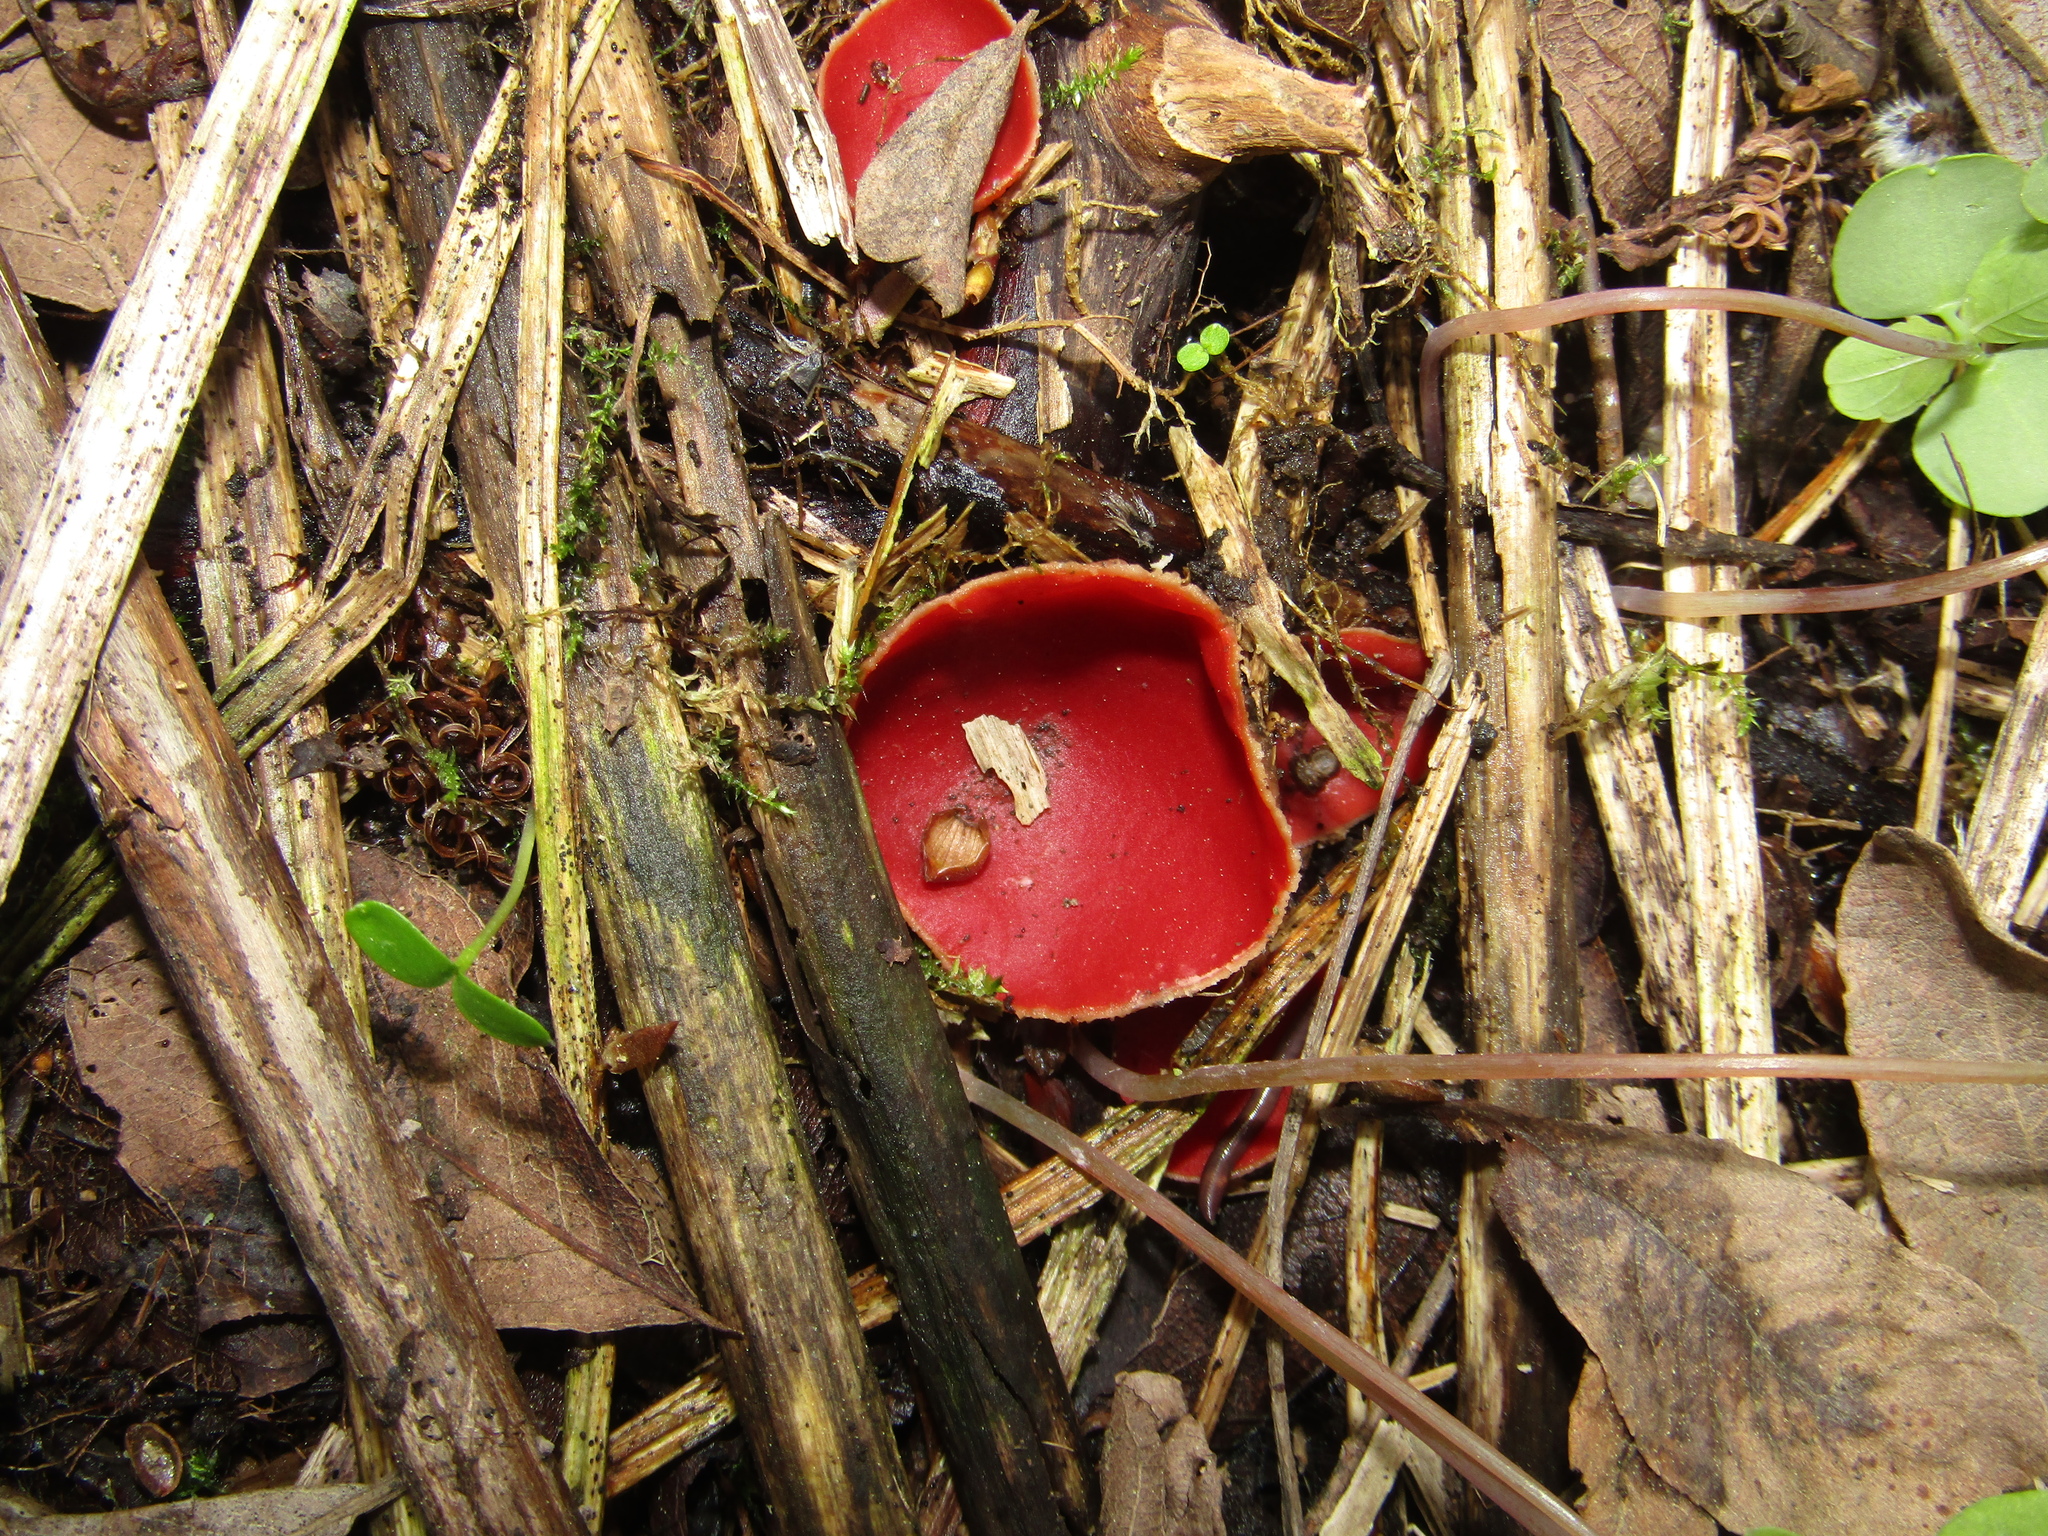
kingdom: Fungi
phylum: Ascomycota
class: Pezizomycetes
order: Pezizales
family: Sarcoscyphaceae
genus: Sarcoscypha
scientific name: Sarcoscypha austriaca
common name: Scarlet elfcup
